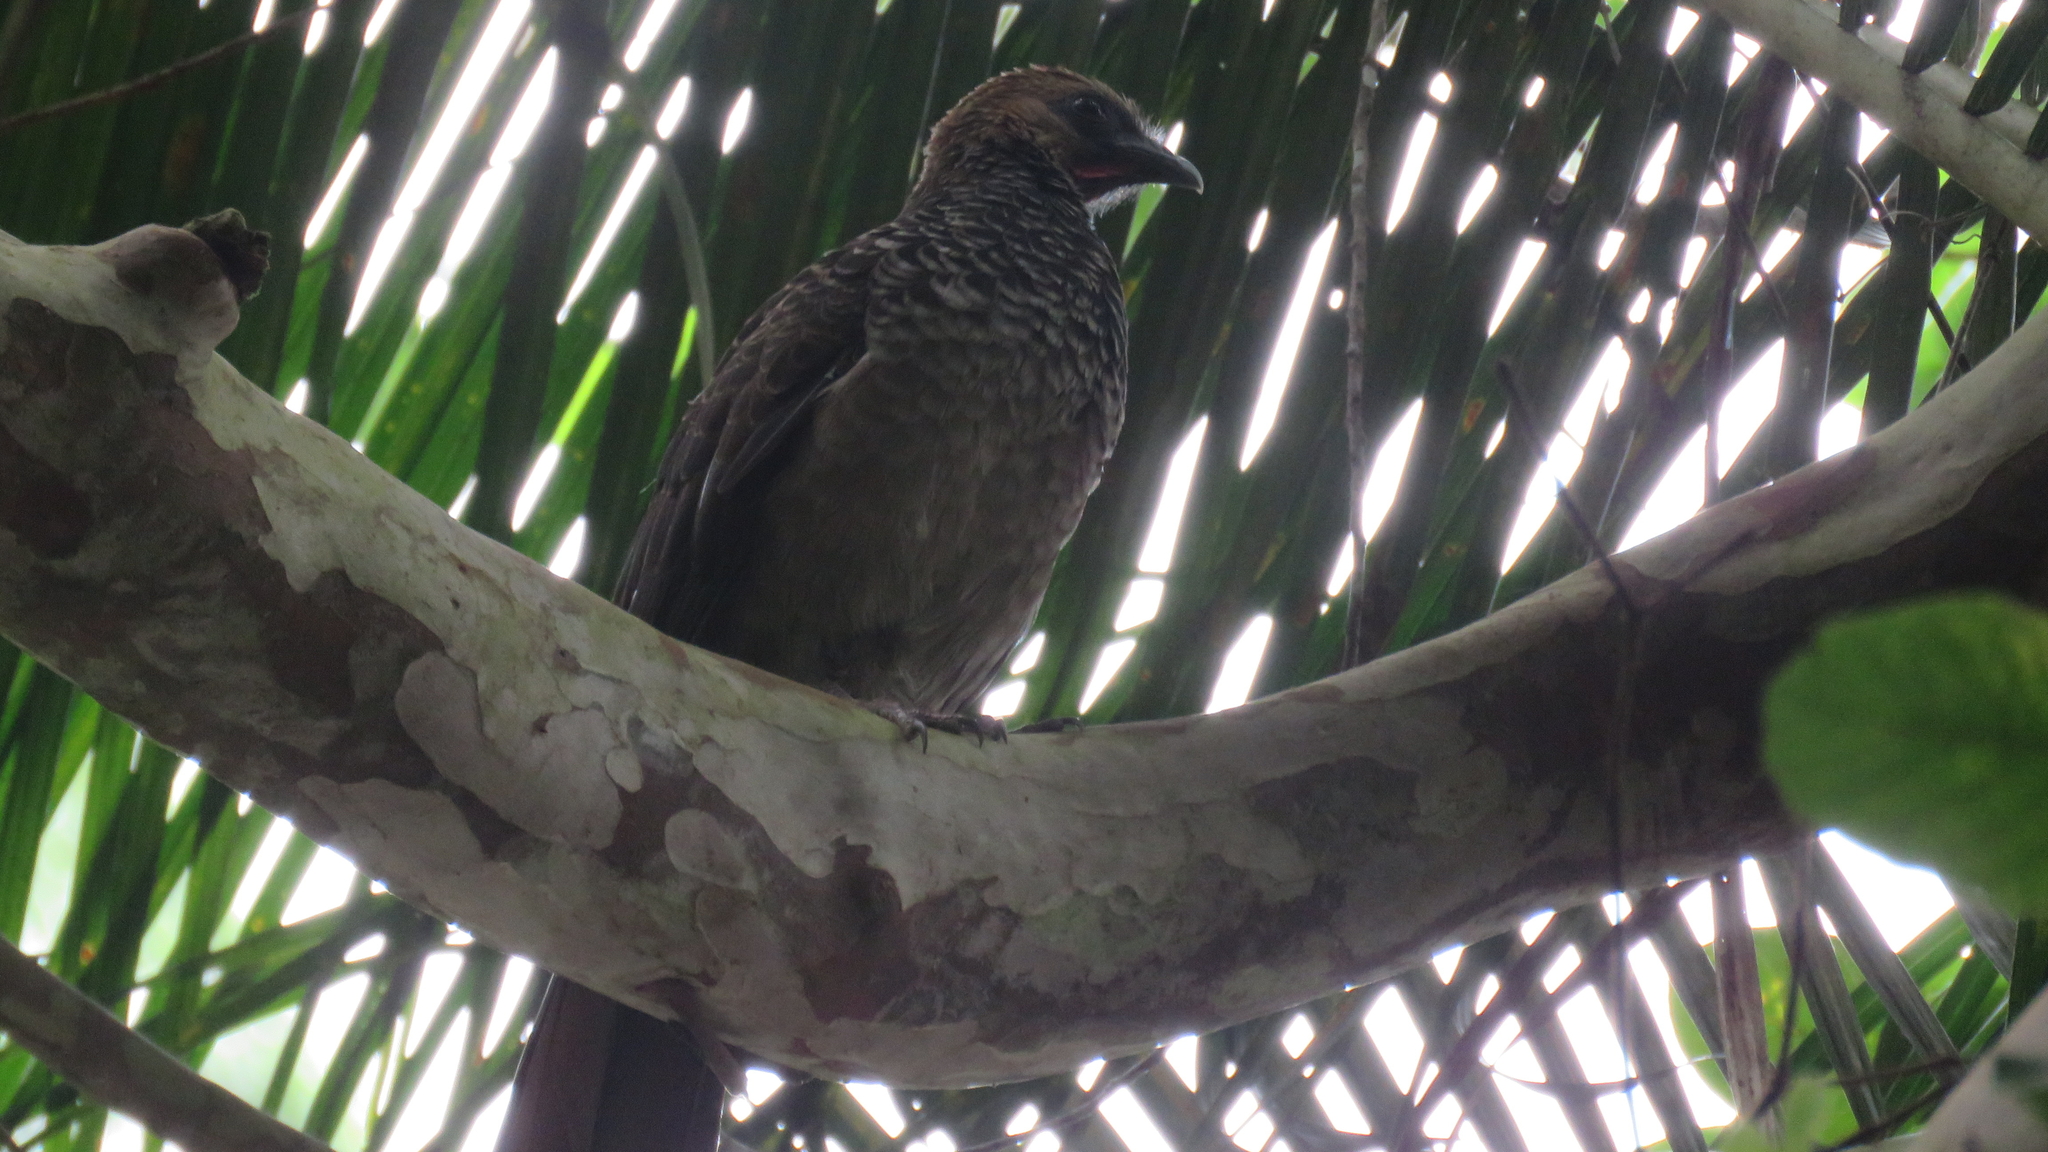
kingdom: Animalia
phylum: Chordata
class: Aves
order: Galliformes
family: Cracidae
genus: Ortalis
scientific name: Ortalis araucuan
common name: East brazilian chachalaca
